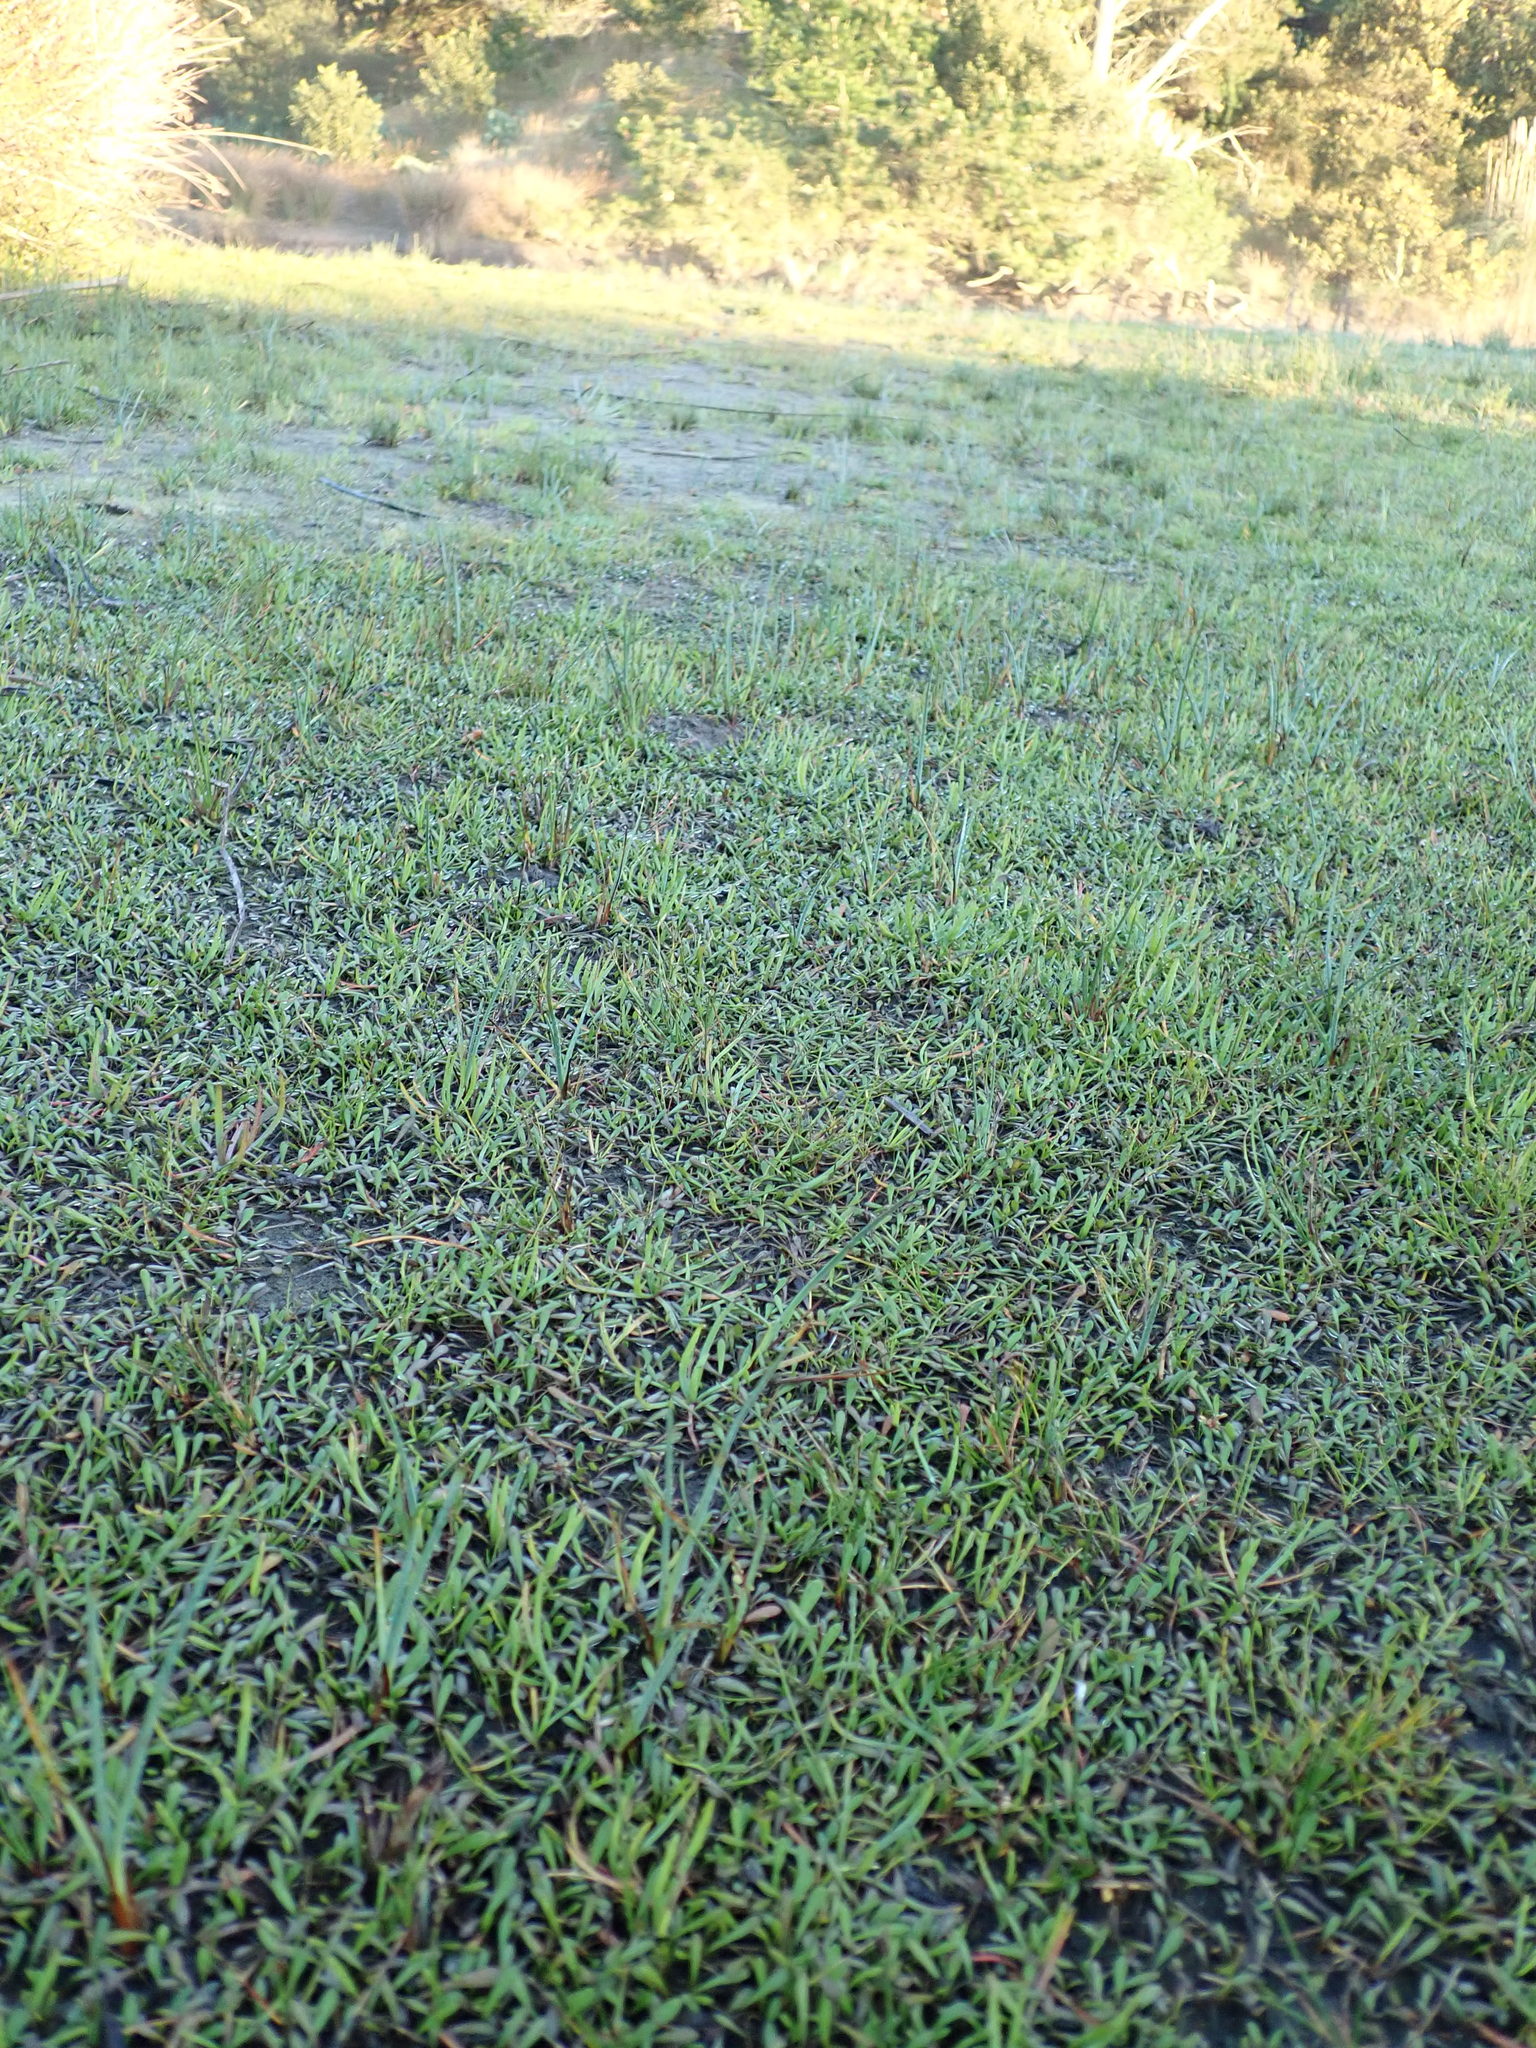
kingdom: Plantae
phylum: Tracheophyta
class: Magnoliopsida
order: Asterales
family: Goodeniaceae
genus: Goodenia
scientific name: Goodenia radicans
